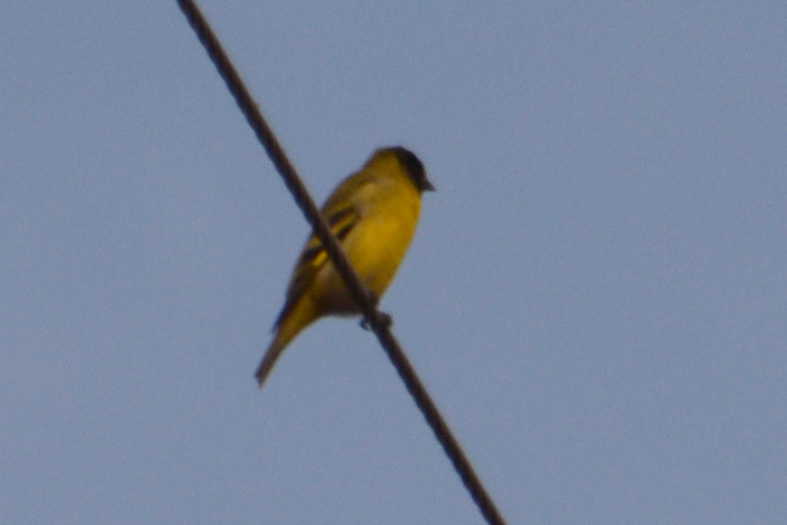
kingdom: Animalia
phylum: Chordata
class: Aves
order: Passeriformes
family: Fringillidae
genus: Spinus
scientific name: Spinus magellanicus
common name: Hooded siskin
